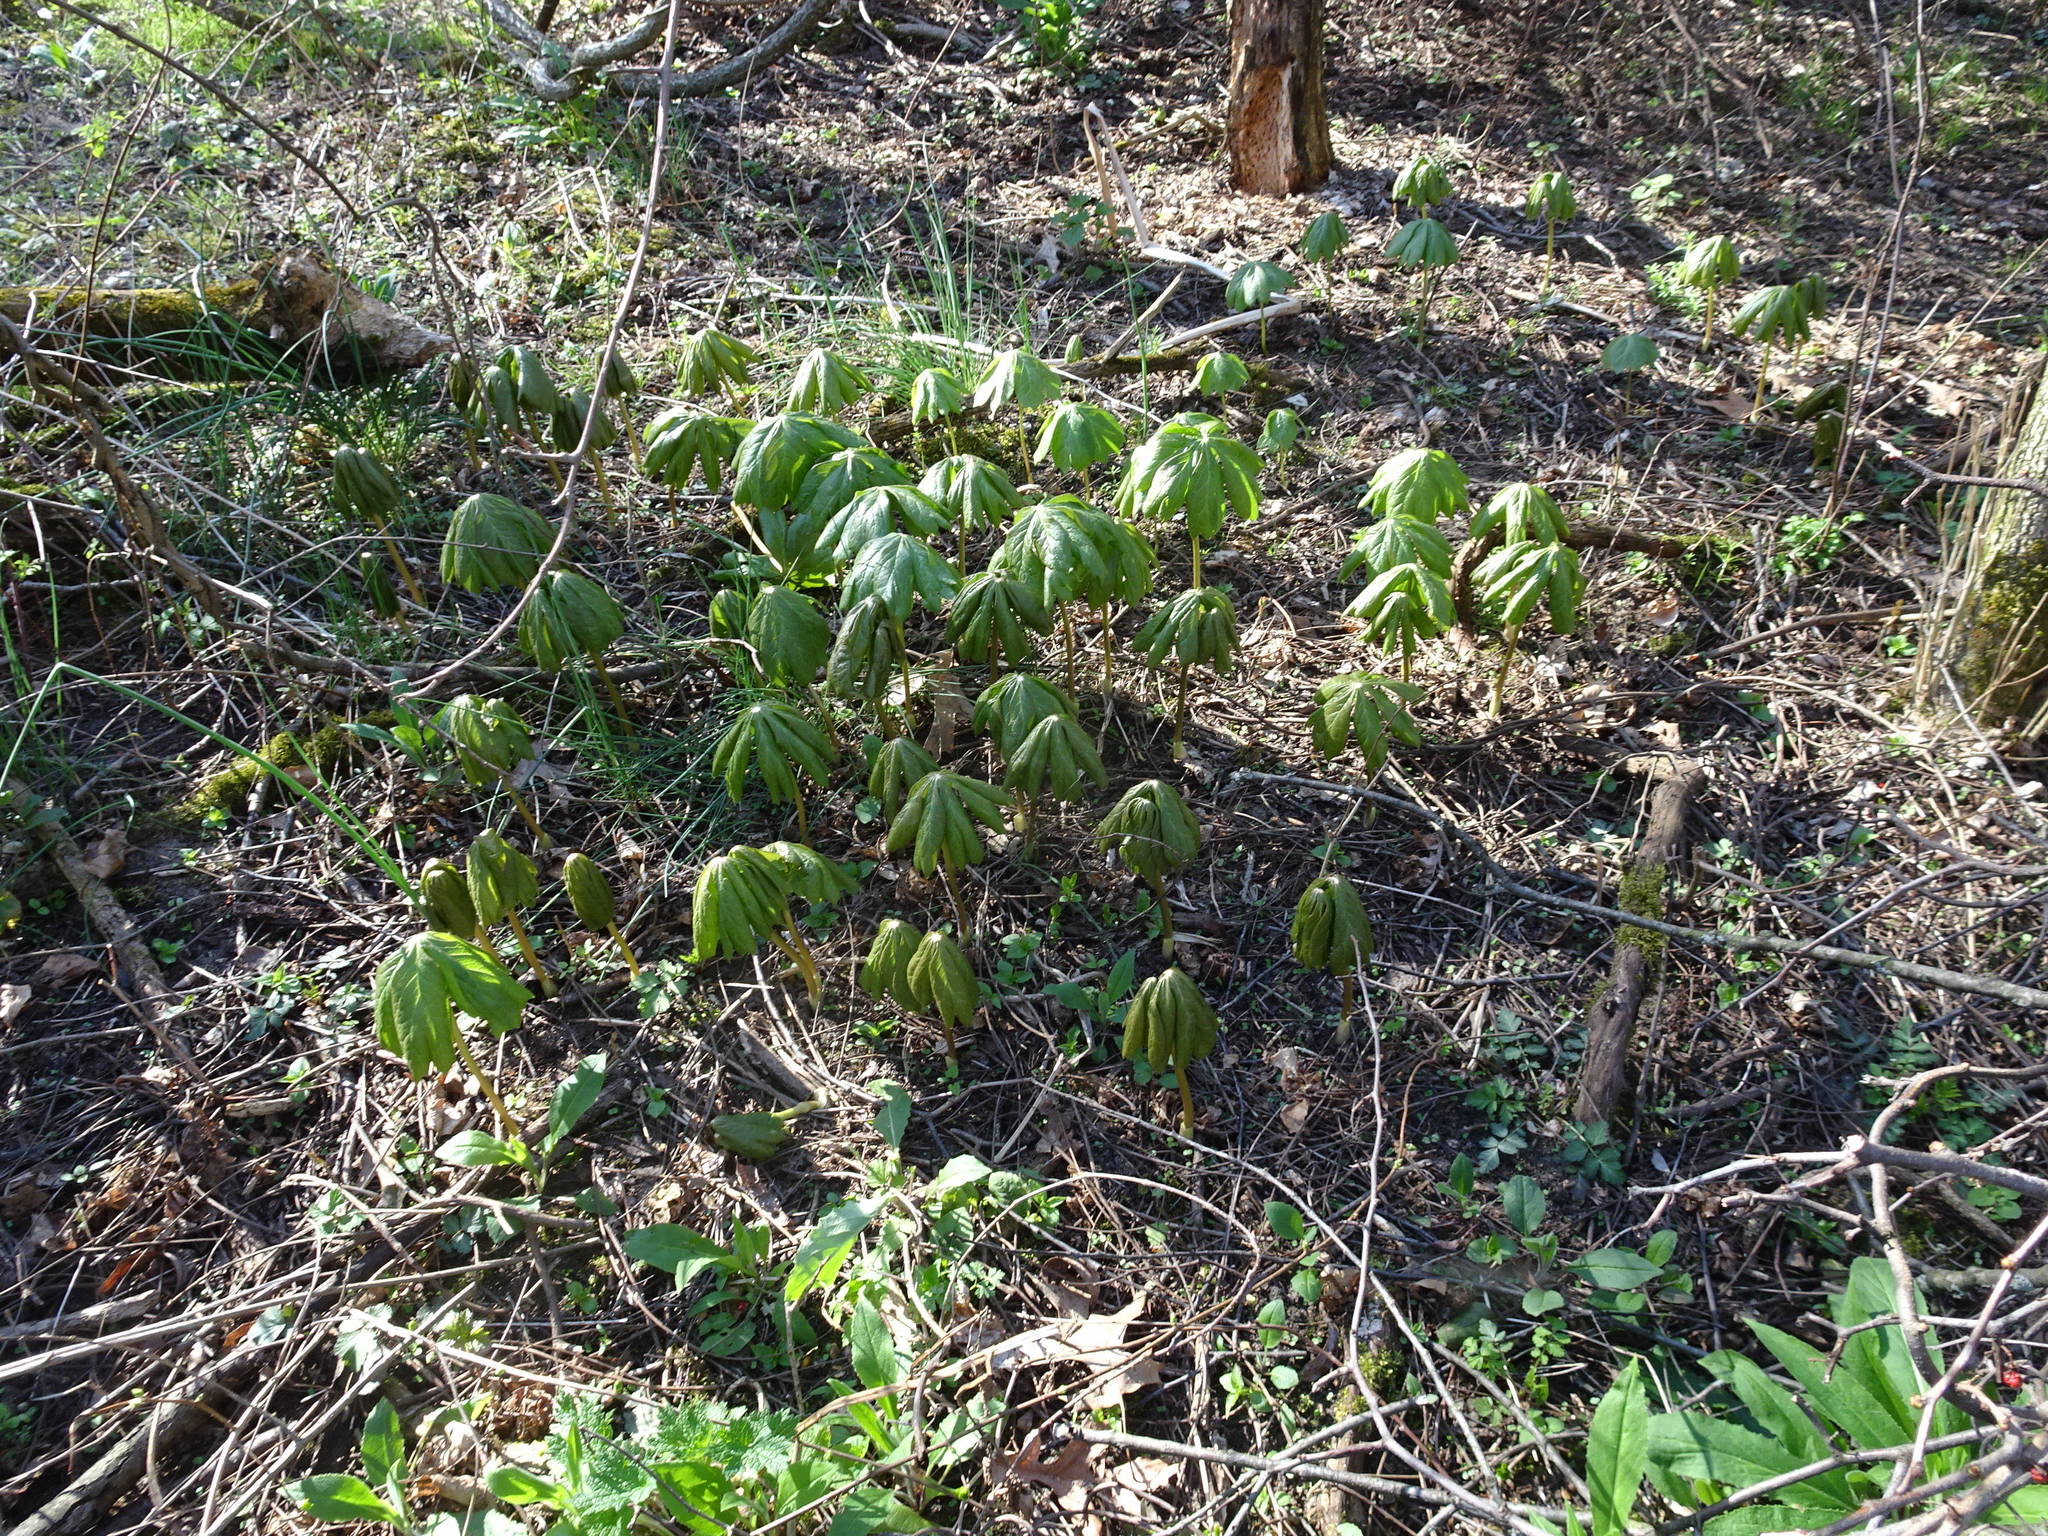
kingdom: Plantae
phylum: Tracheophyta
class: Magnoliopsida
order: Ranunculales
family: Berberidaceae
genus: Podophyllum
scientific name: Podophyllum peltatum
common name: Wild mandrake
